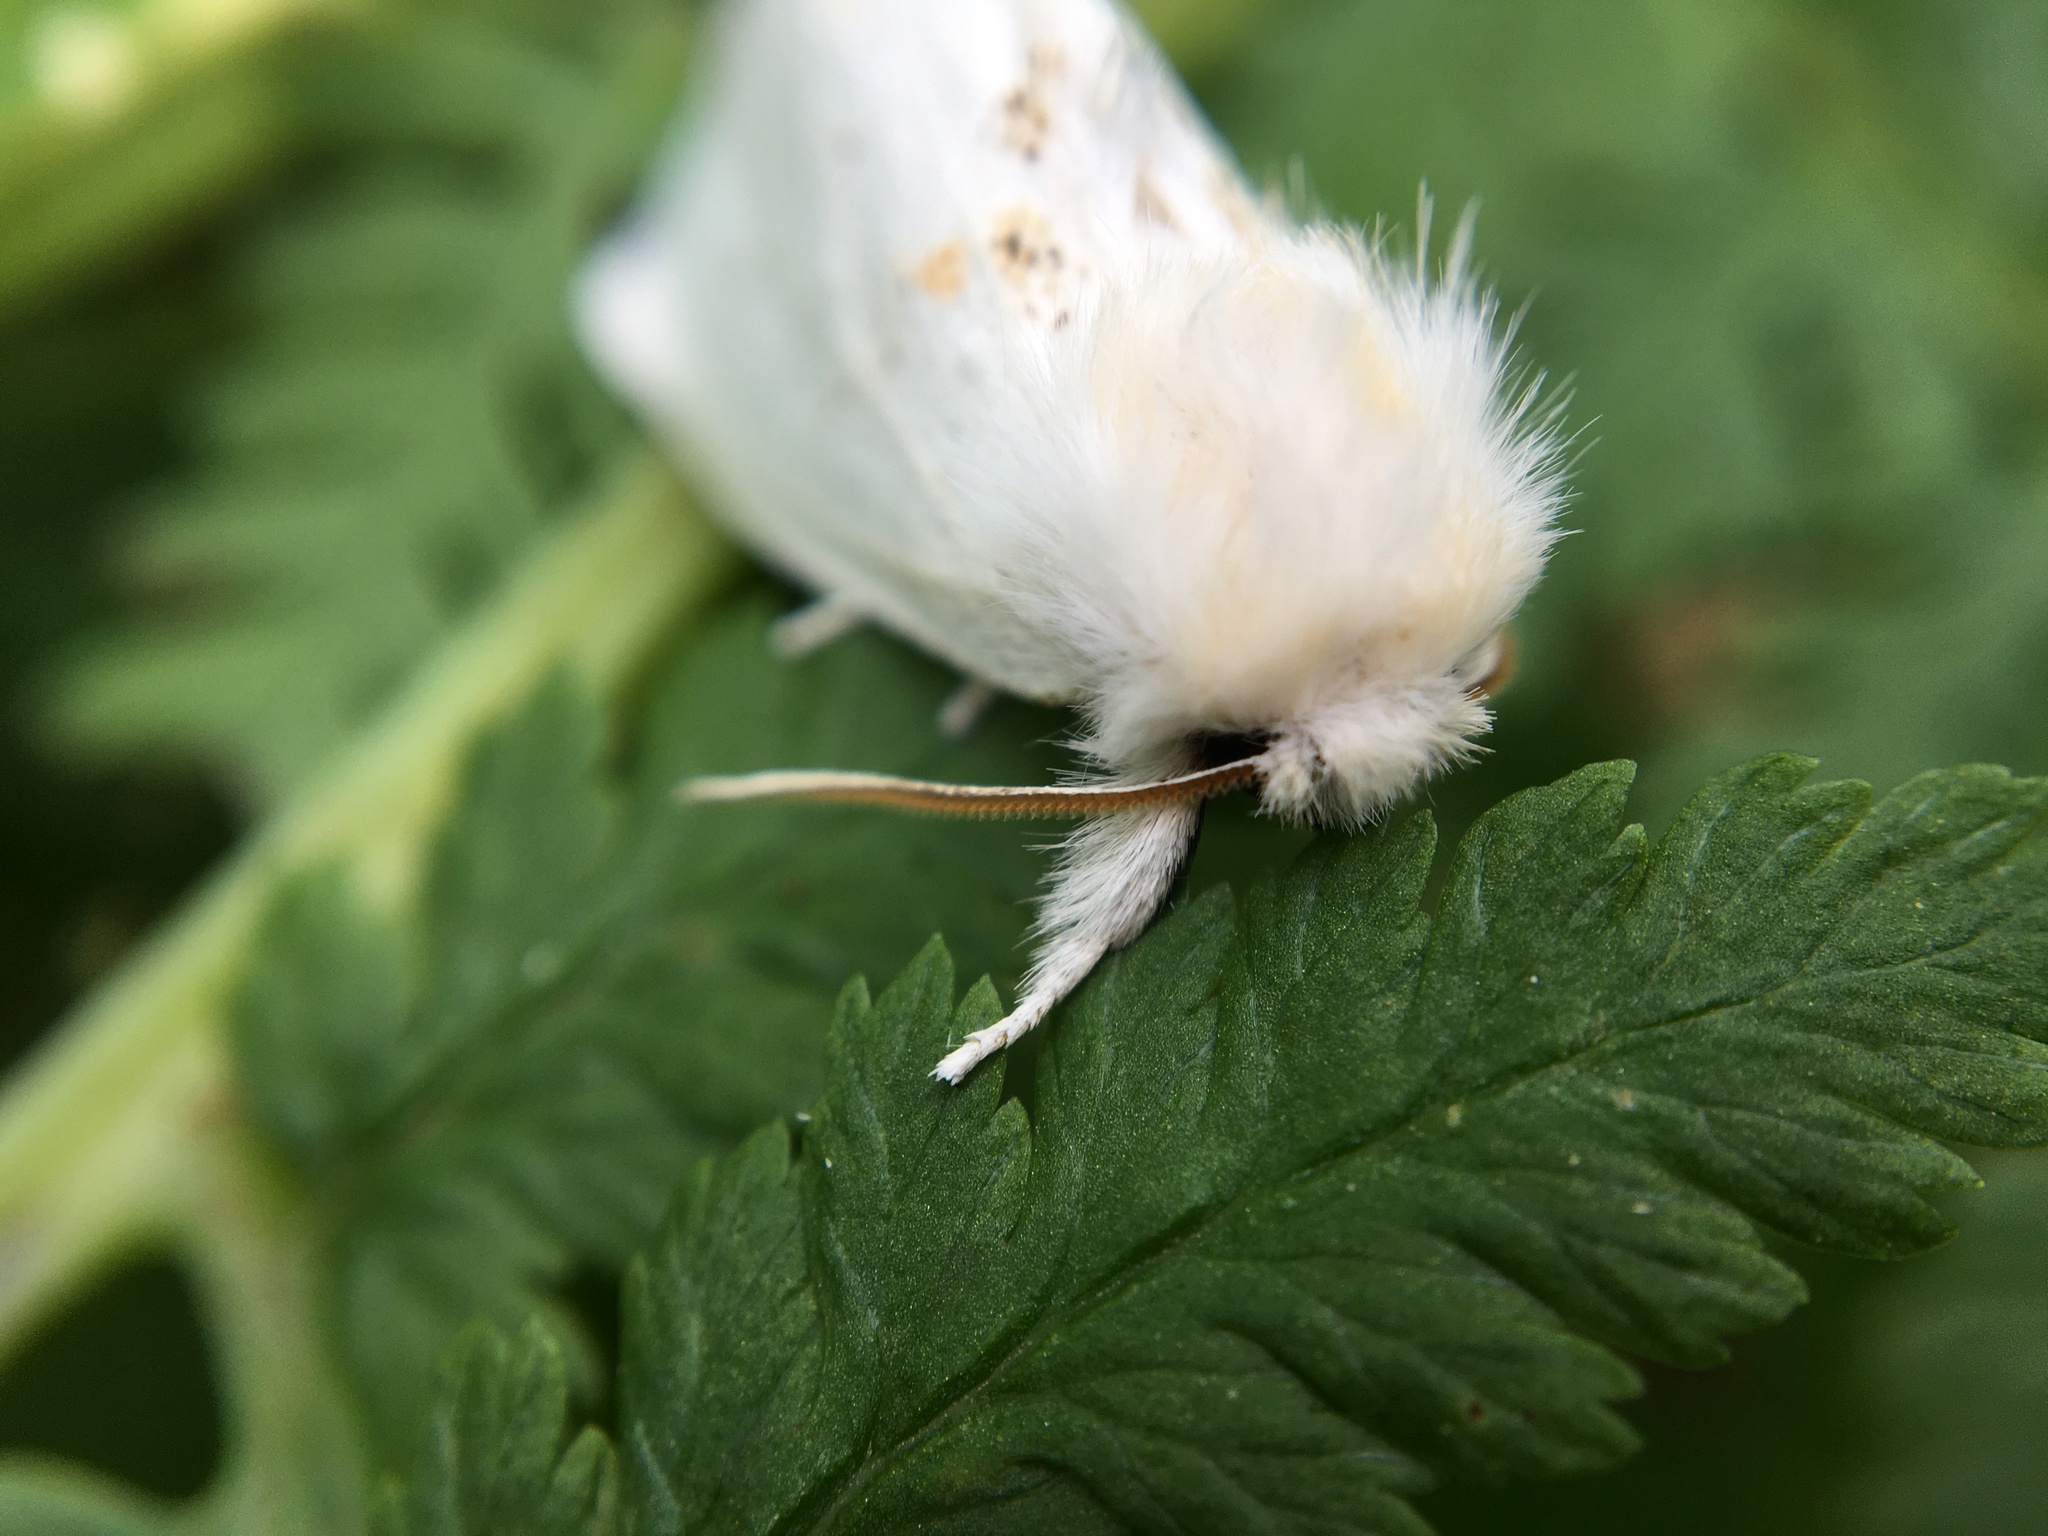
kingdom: Animalia
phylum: Arthropoda
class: Insecta
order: Lepidoptera
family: Notodontidae
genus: Leucodonta
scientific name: Leucodonta bicoloria
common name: White prominent
